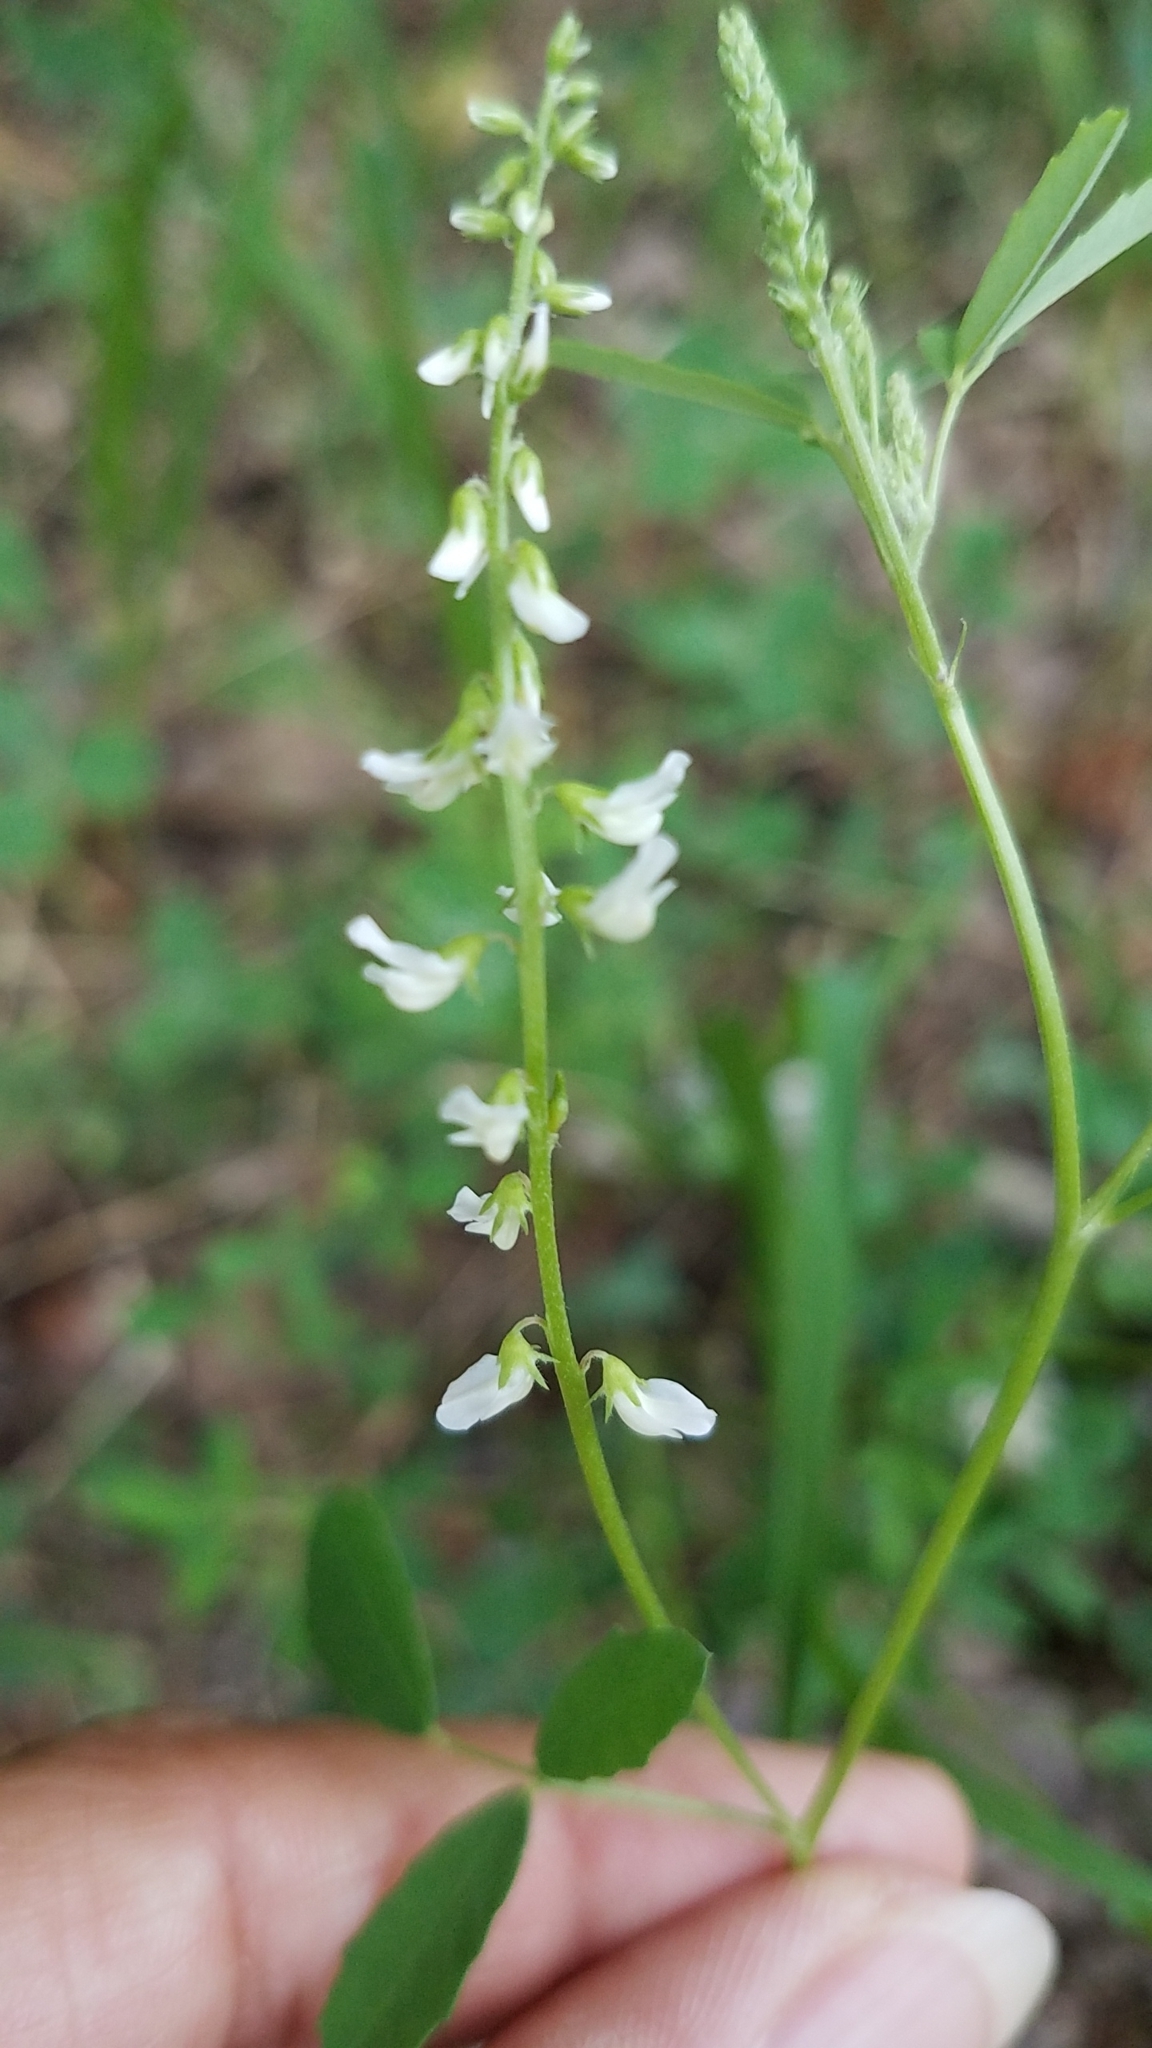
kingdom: Plantae
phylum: Tracheophyta
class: Magnoliopsida
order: Fabales
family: Fabaceae
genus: Melilotus
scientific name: Melilotus albus
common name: White melilot
